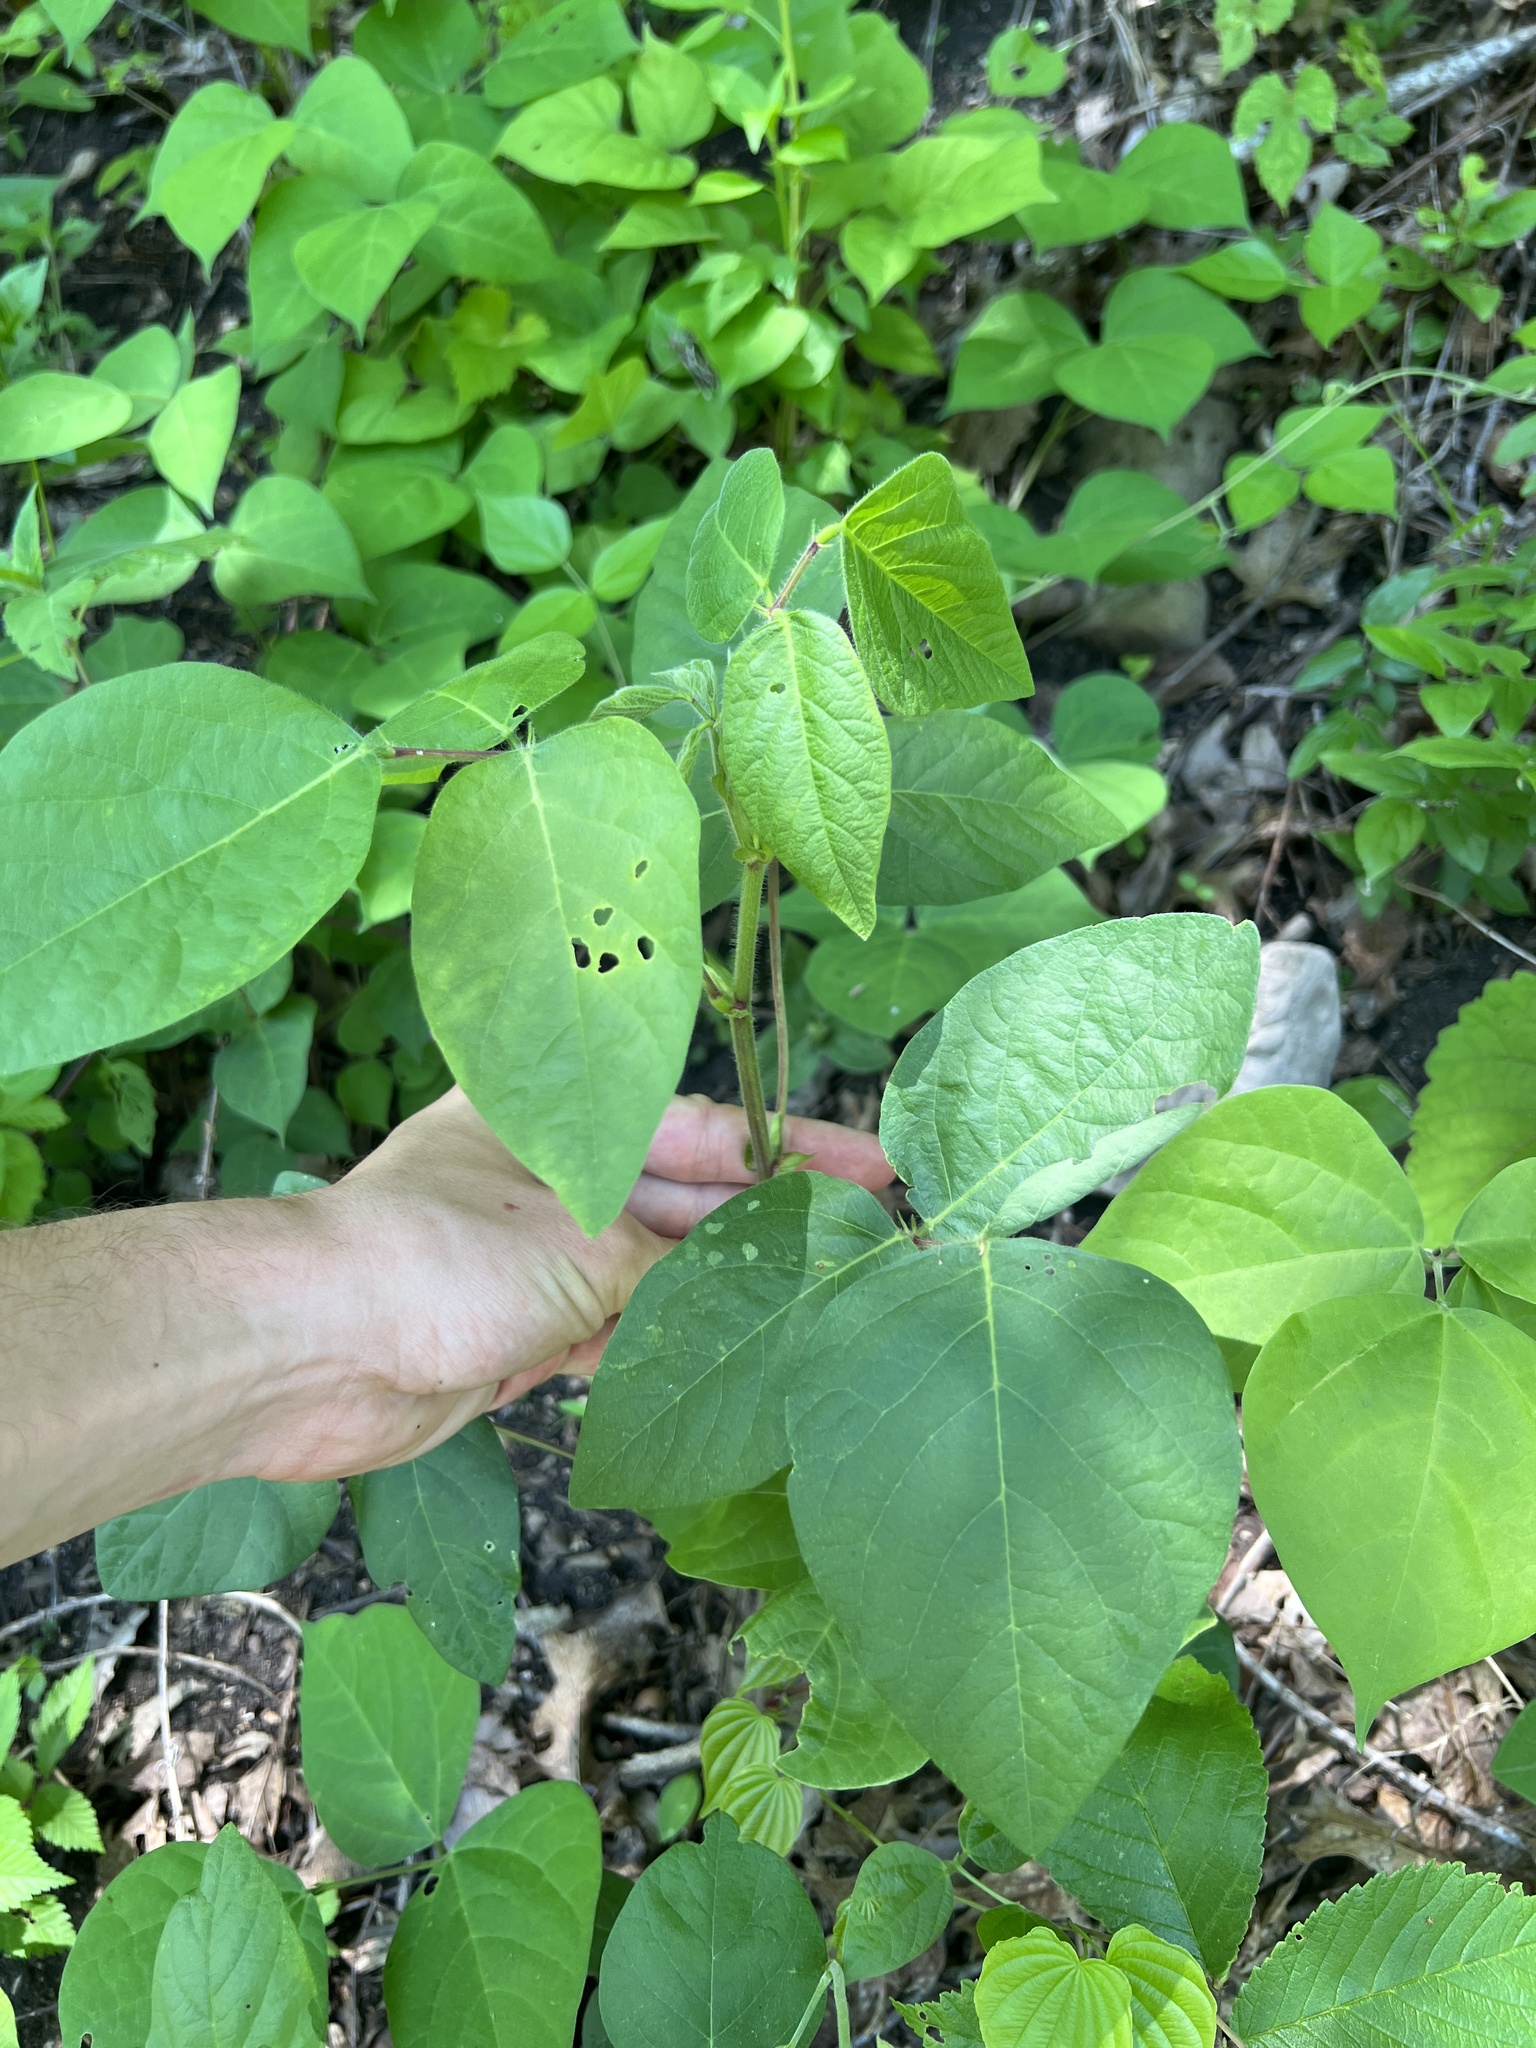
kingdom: Plantae
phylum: Tracheophyta
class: Magnoliopsida
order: Fabales
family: Fabaceae
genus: Desmodium
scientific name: Desmodium canescens
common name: Hoary tick-clover
